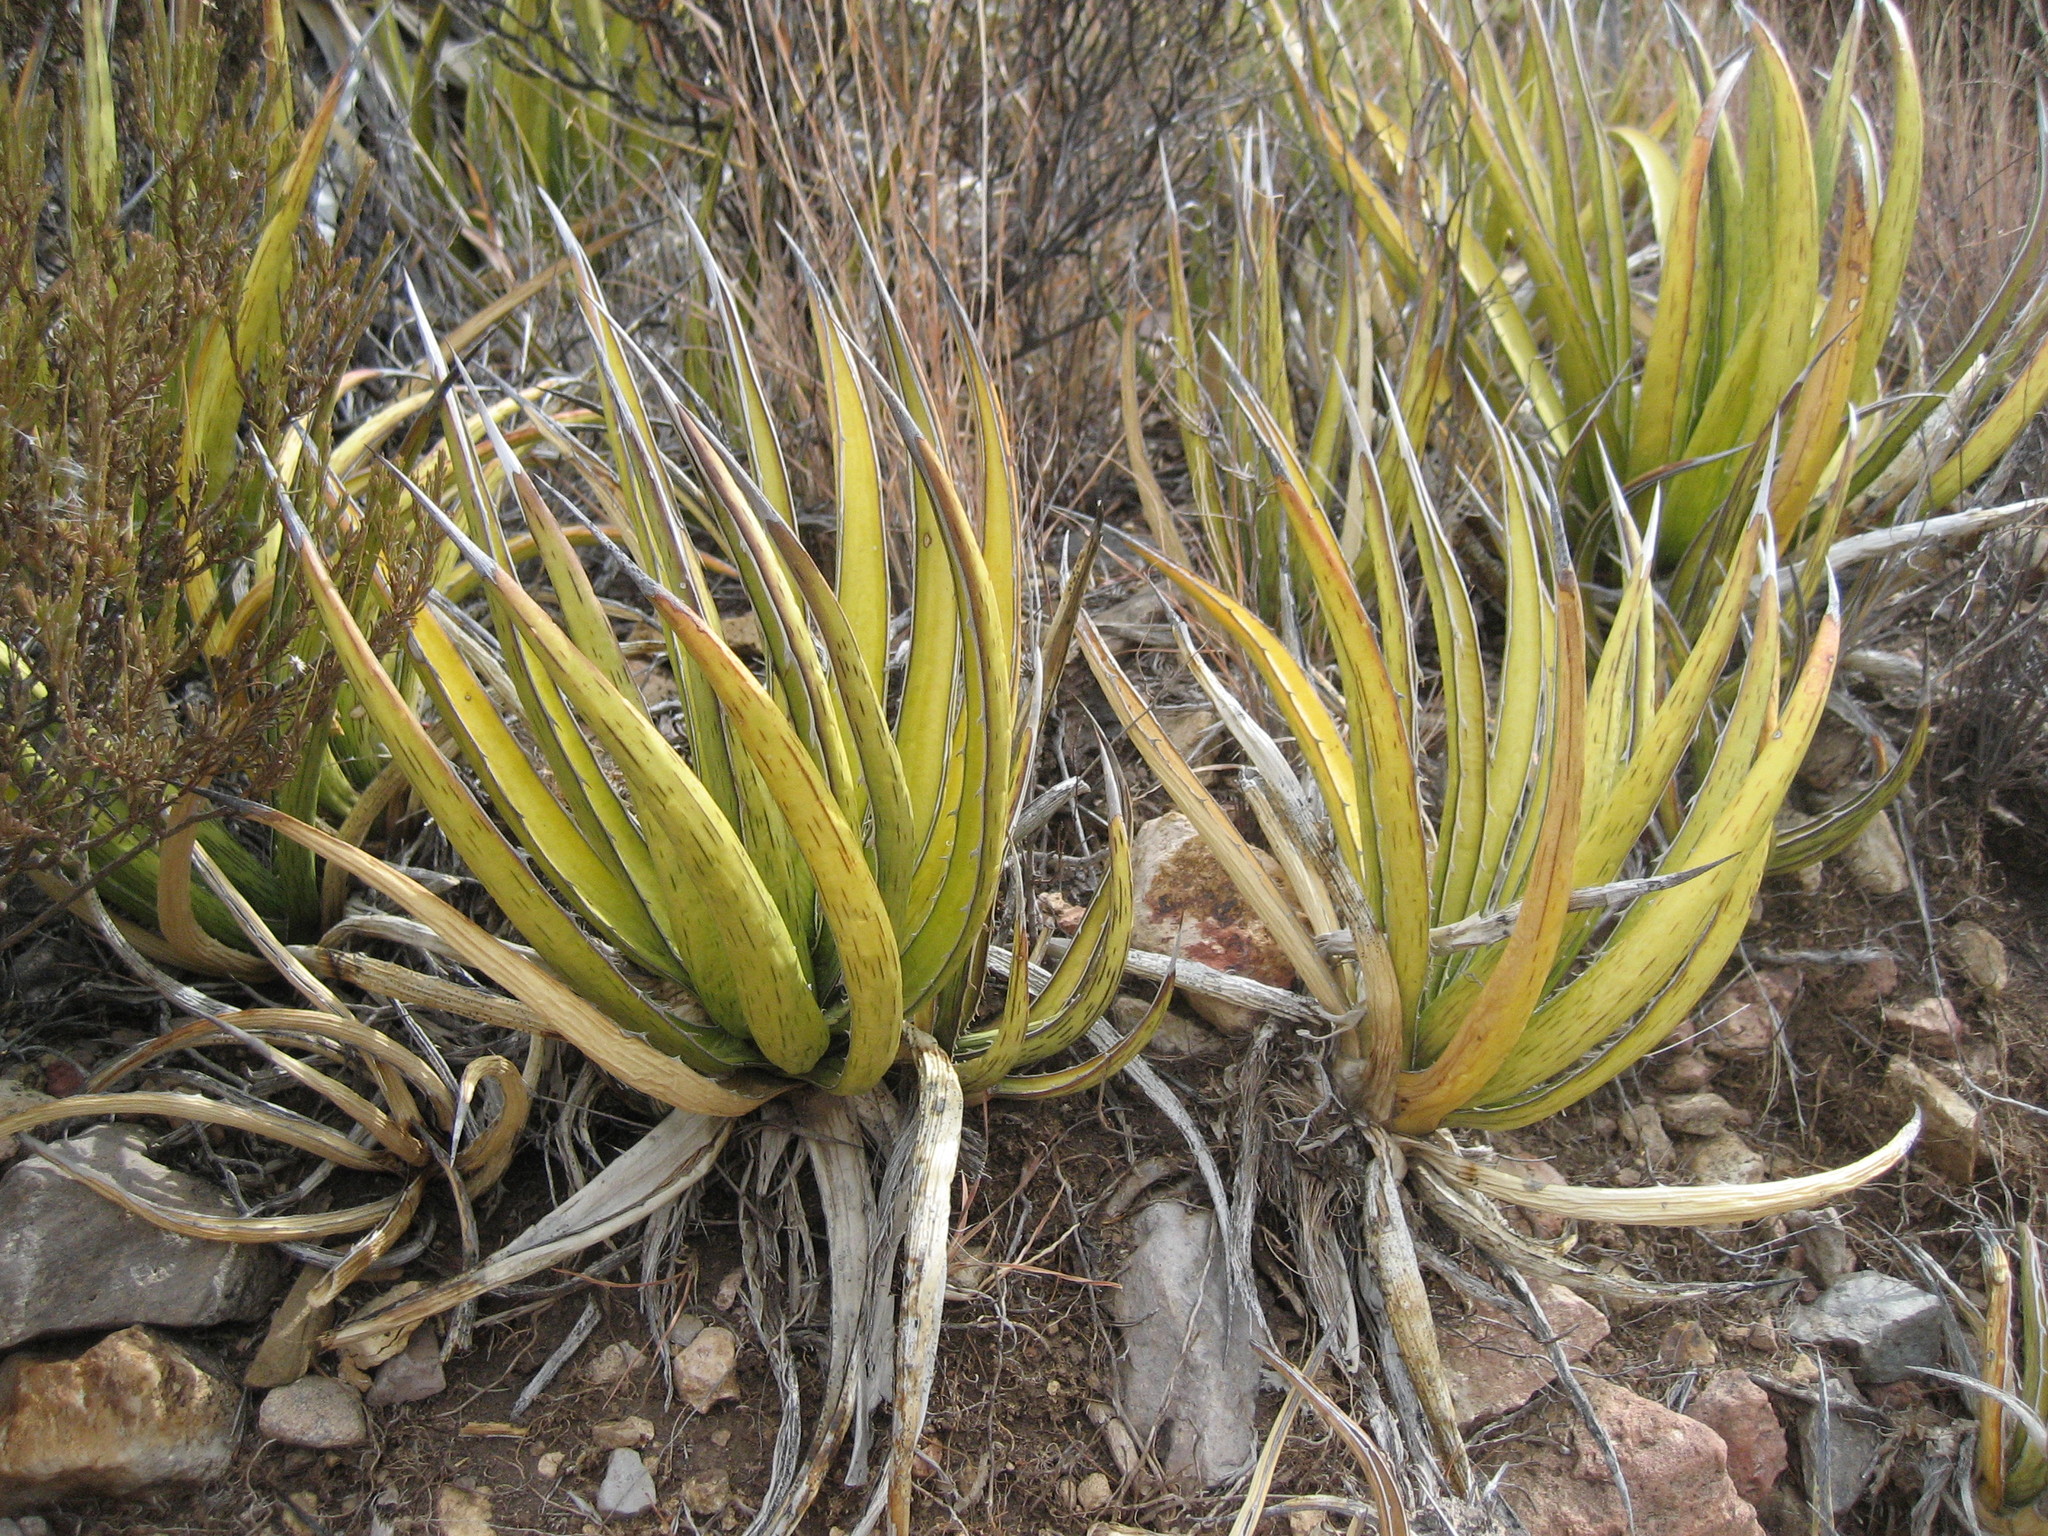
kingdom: Plantae
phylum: Tracheophyta
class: Liliopsida
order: Asparagales
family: Asparagaceae
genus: Agave
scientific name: Agave lechuguilla
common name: Lecheguilla agave
